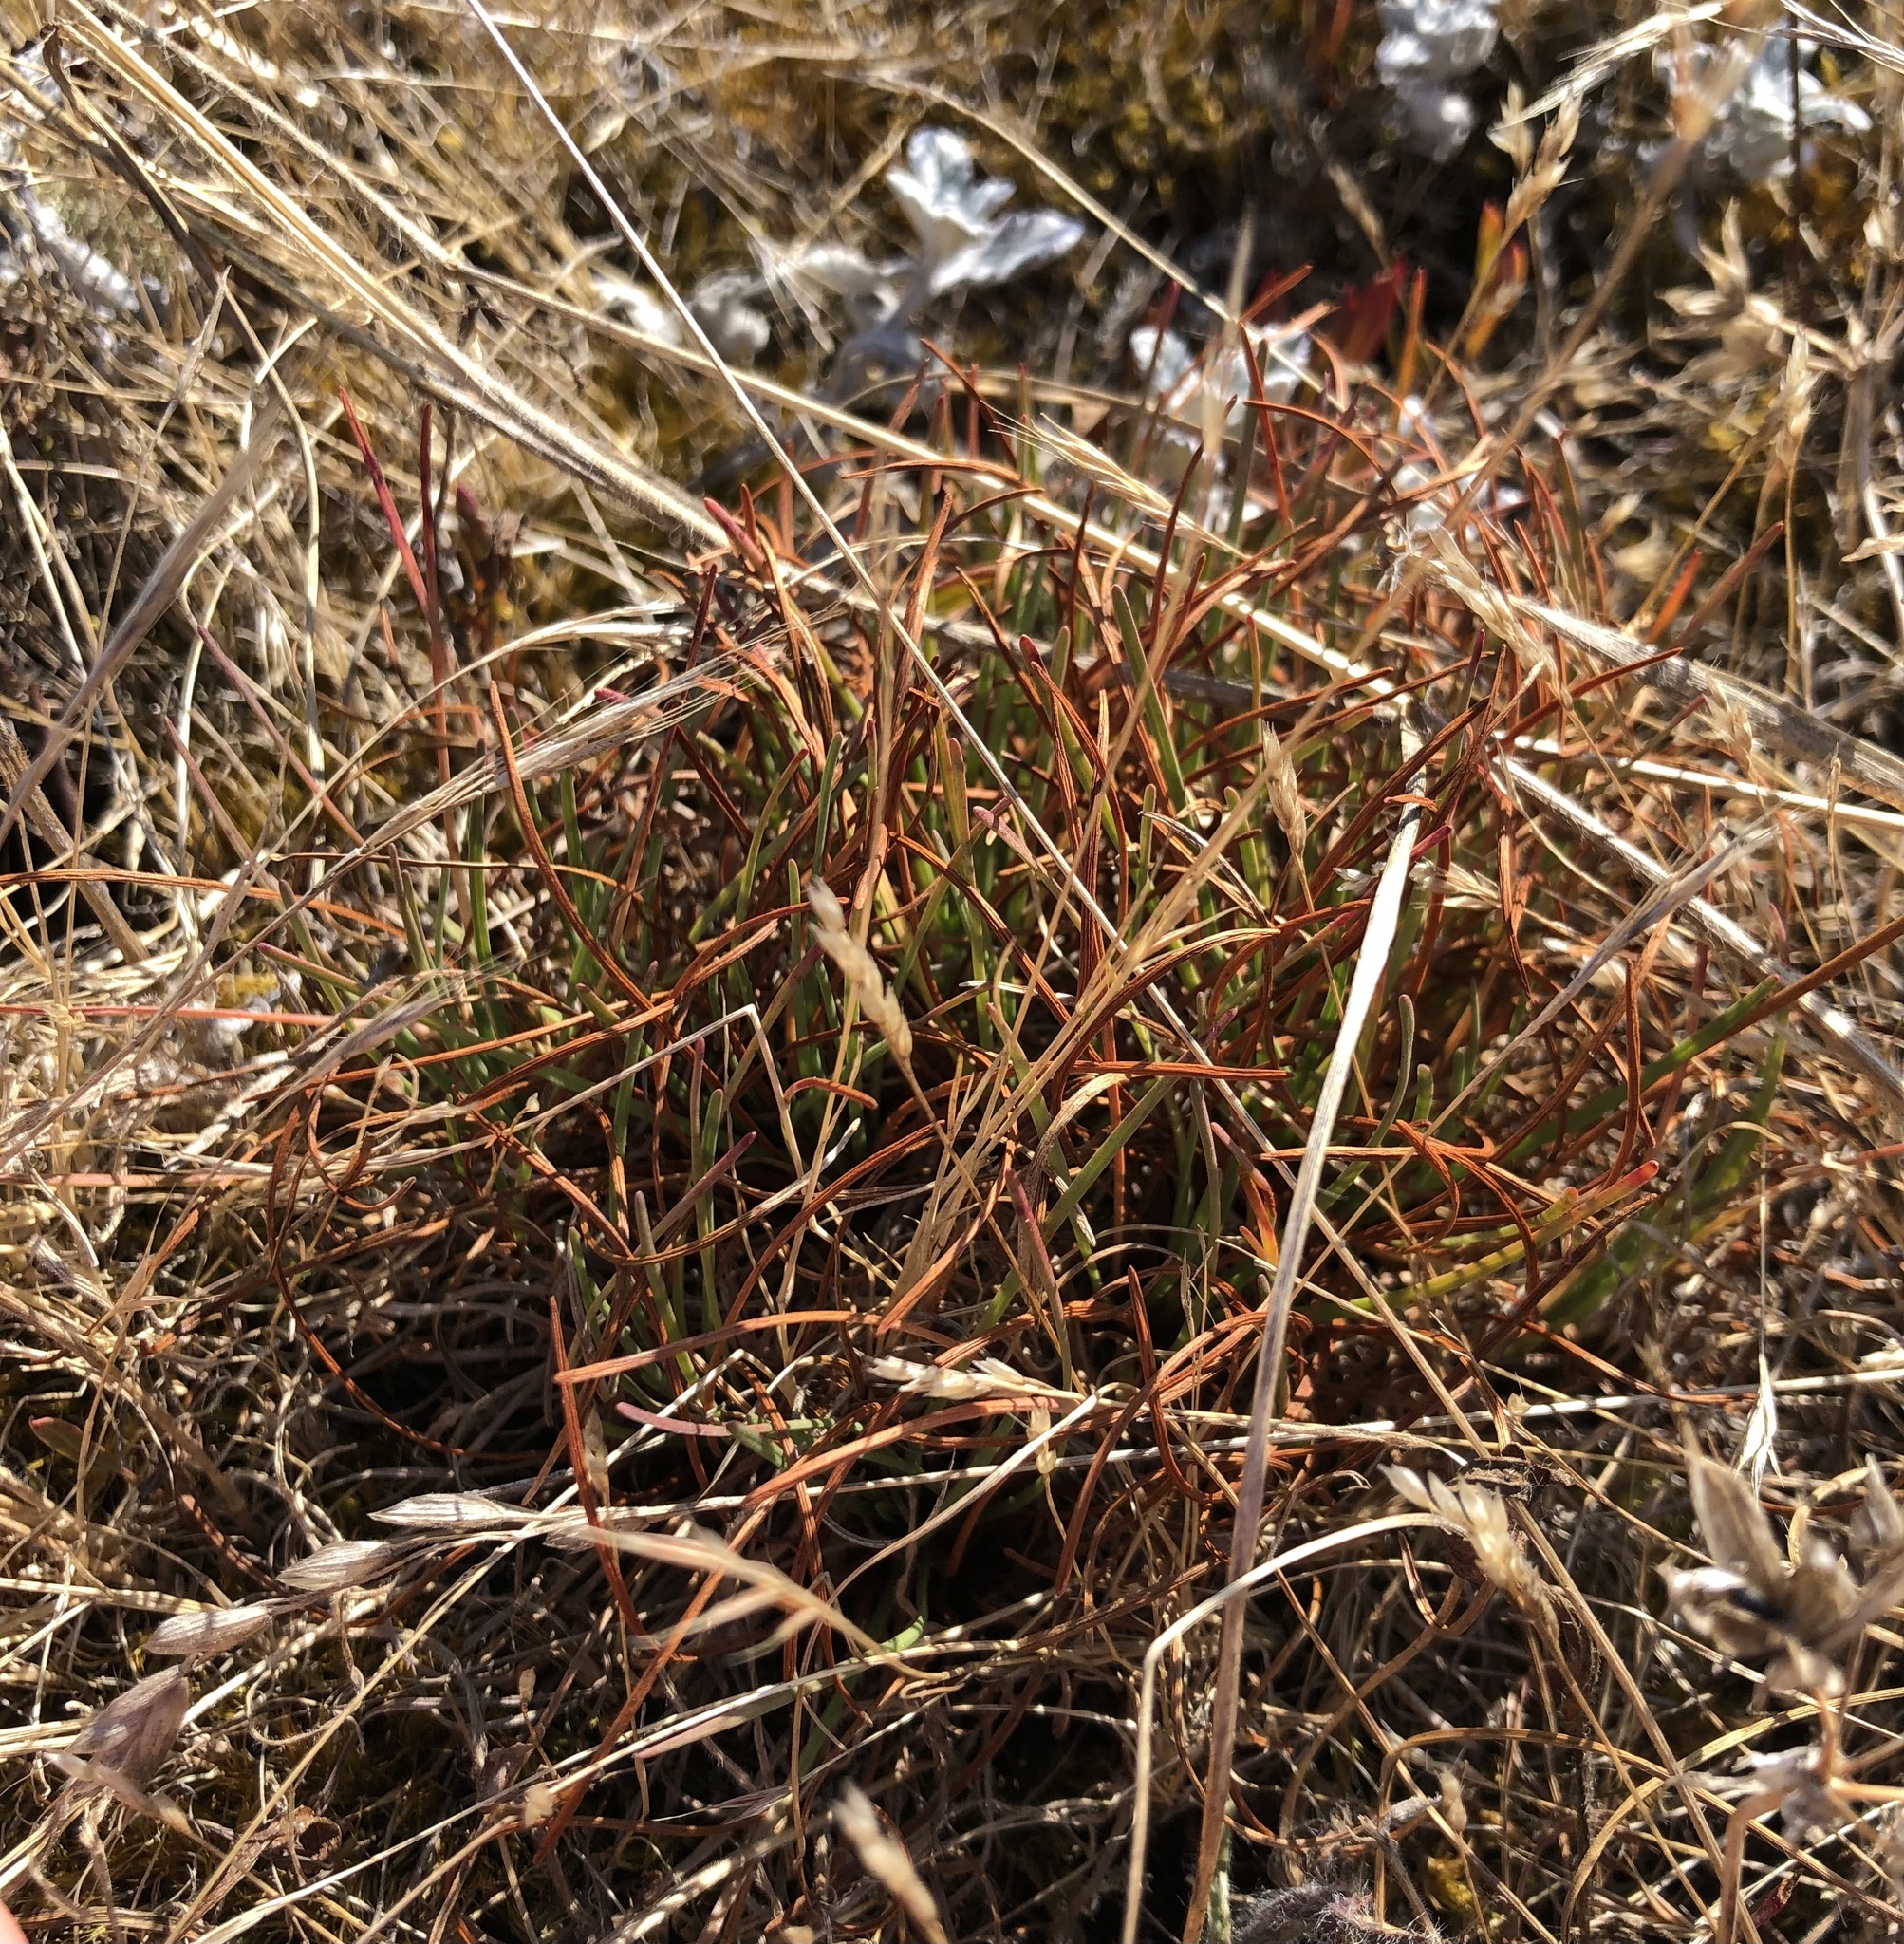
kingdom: Plantae
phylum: Tracheophyta
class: Magnoliopsida
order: Caryophyllales
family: Plumbaginaceae
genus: Armeria
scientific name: Armeria maritima
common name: Thrift
